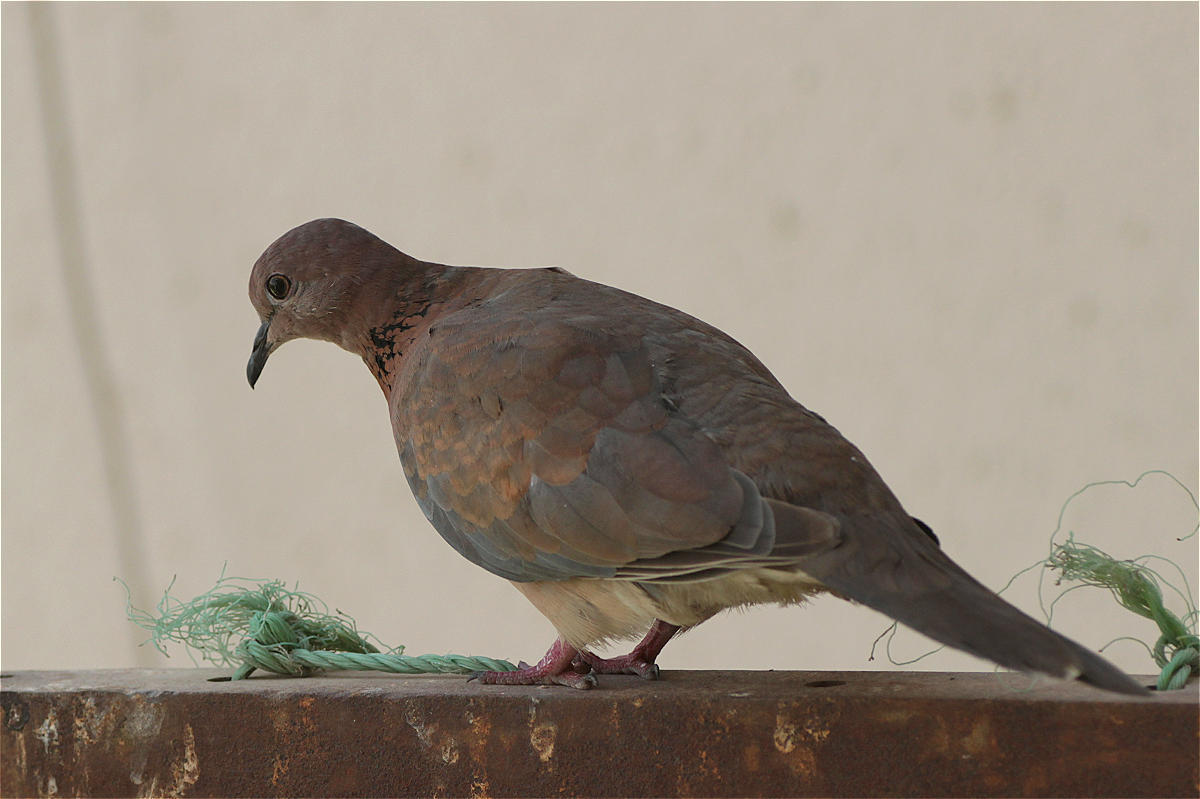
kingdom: Animalia
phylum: Chordata
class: Aves
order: Columbiformes
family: Columbidae
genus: Spilopelia
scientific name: Spilopelia senegalensis
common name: Laughing dove
